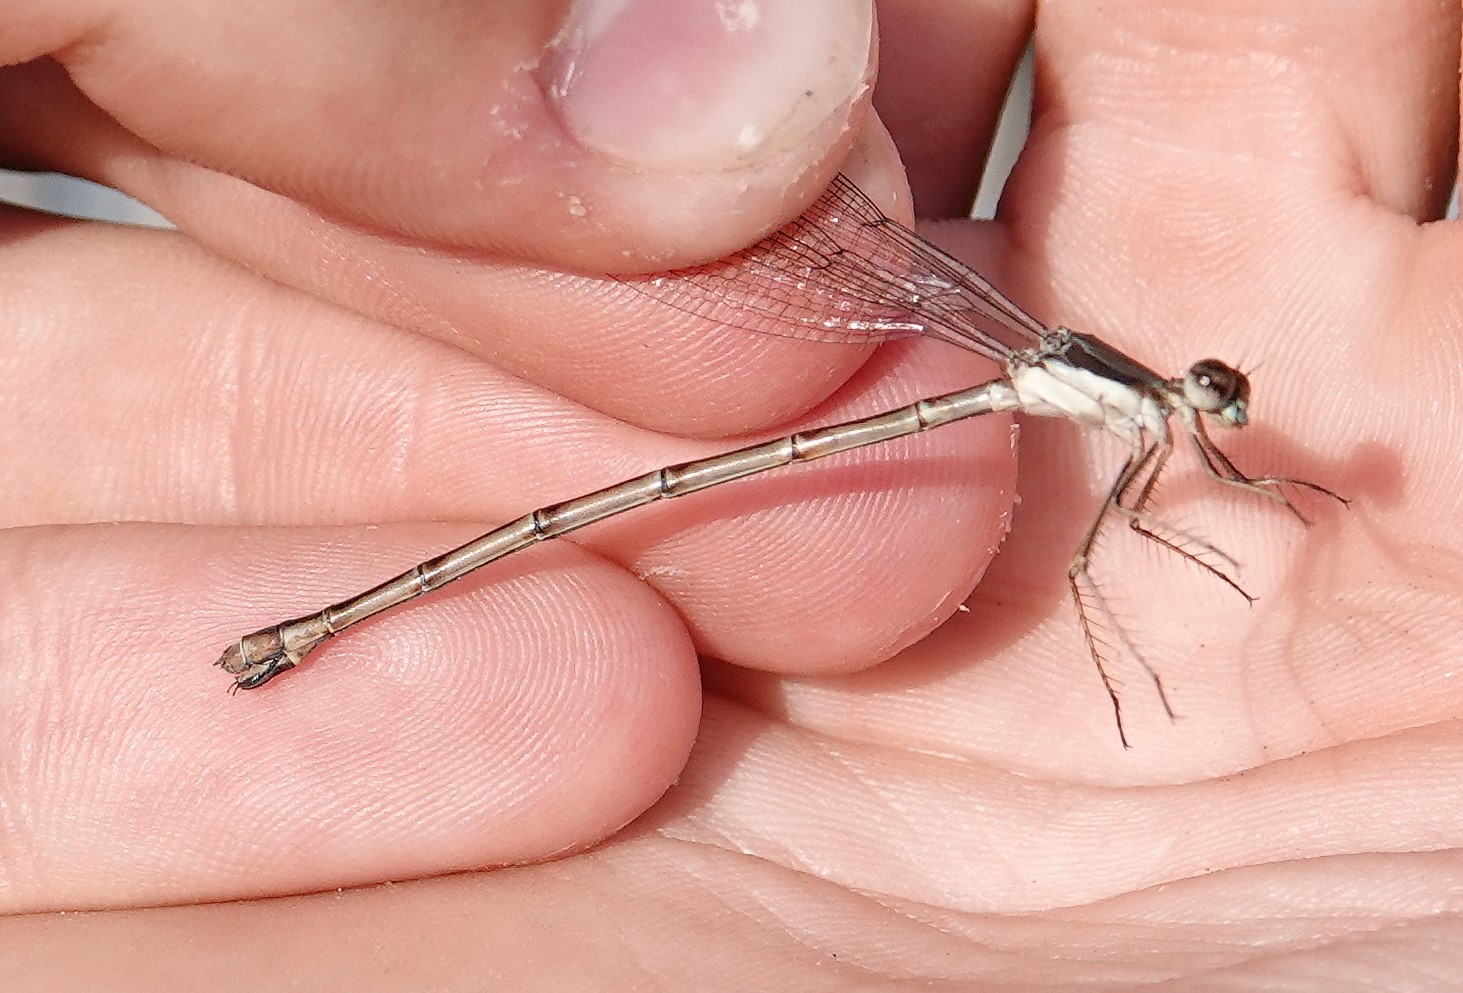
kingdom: Animalia
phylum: Arthropoda
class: Insecta
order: Odonata
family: Lestidae
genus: Lestes
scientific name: Lestes rectangularis
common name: Slender spreadwing
